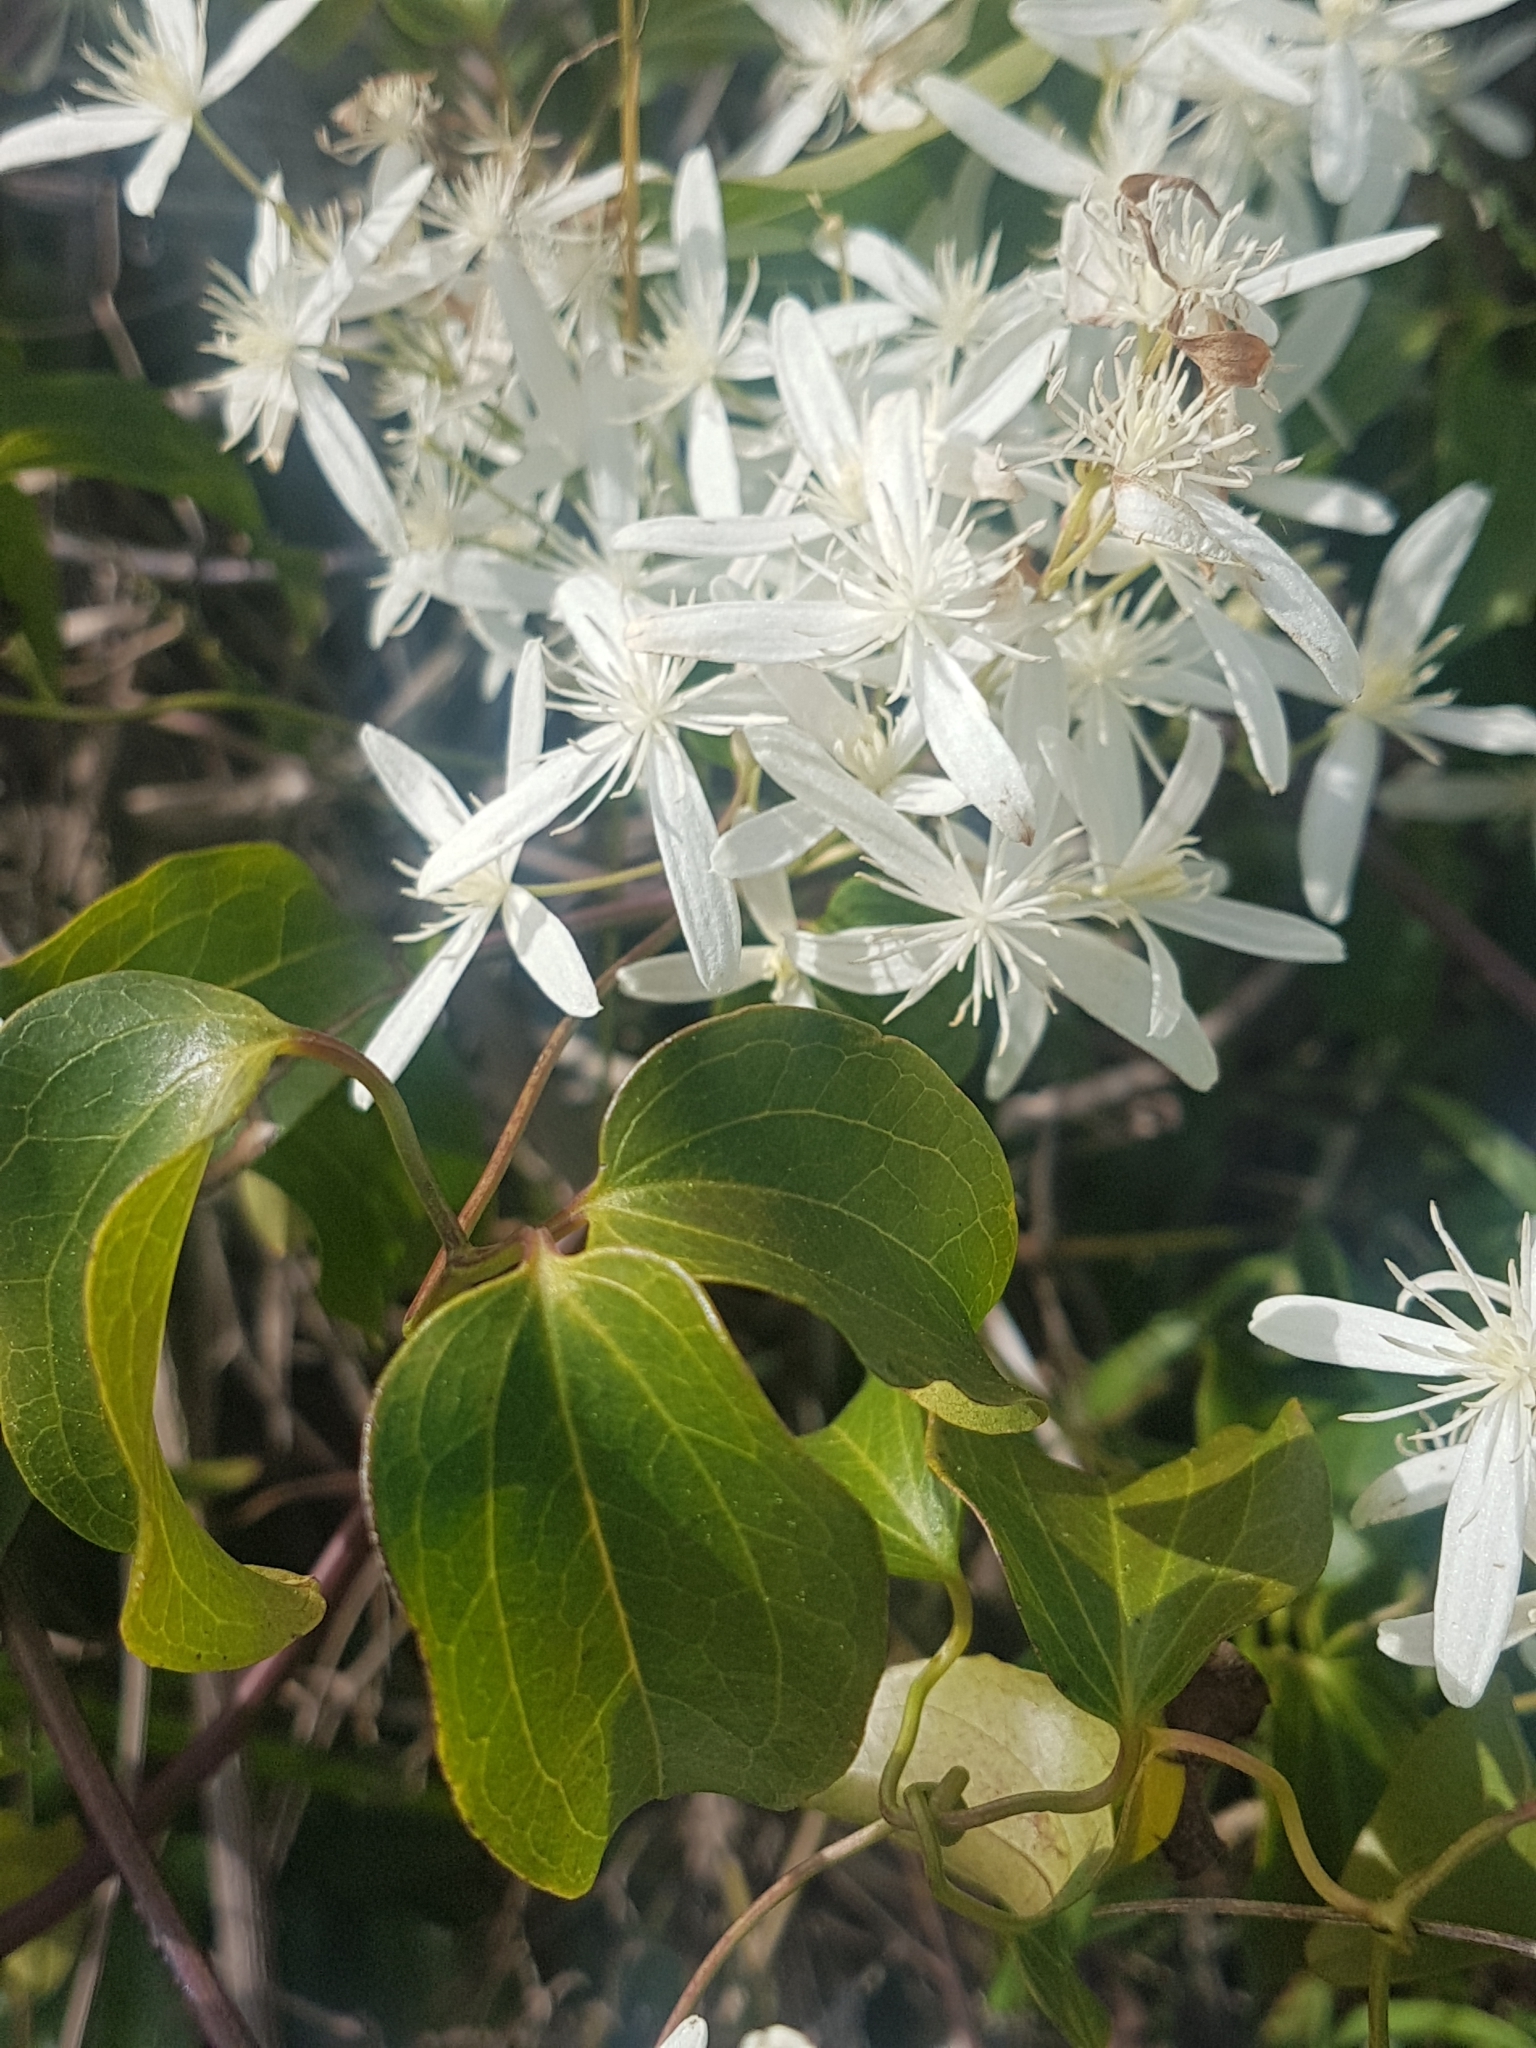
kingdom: Plantae
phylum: Tracheophyta
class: Magnoliopsida
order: Ranunculales
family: Ranunculaceae
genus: Clematis
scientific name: Clematis glycinoides
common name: Forest clematis
